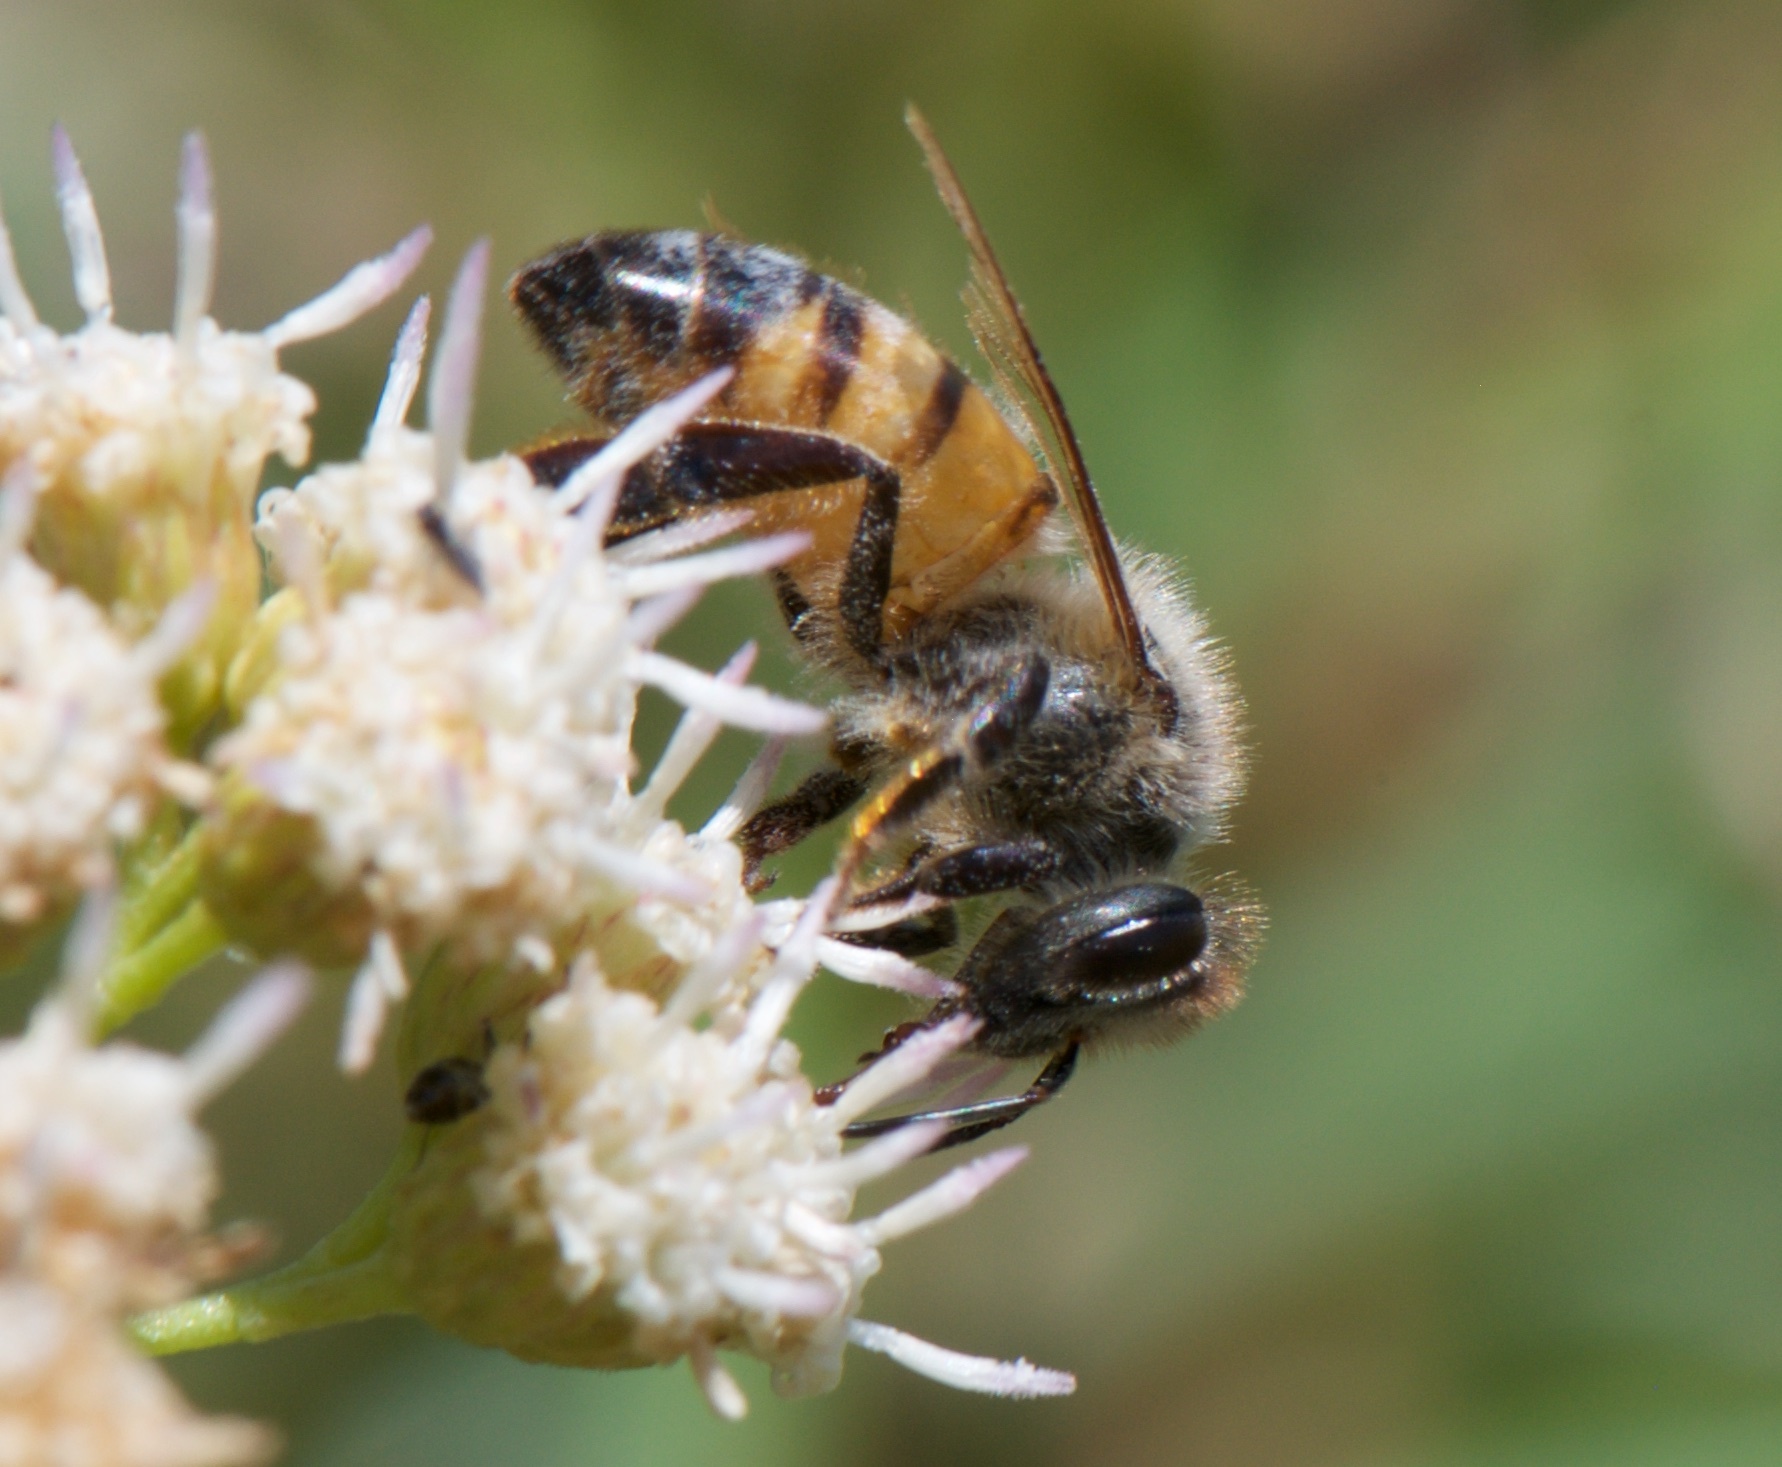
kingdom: Animalia
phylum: Arthropoda
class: Insecta
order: Hymenoptera
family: Apidae
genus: Apis
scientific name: Apis mellifera
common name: Honey bee
